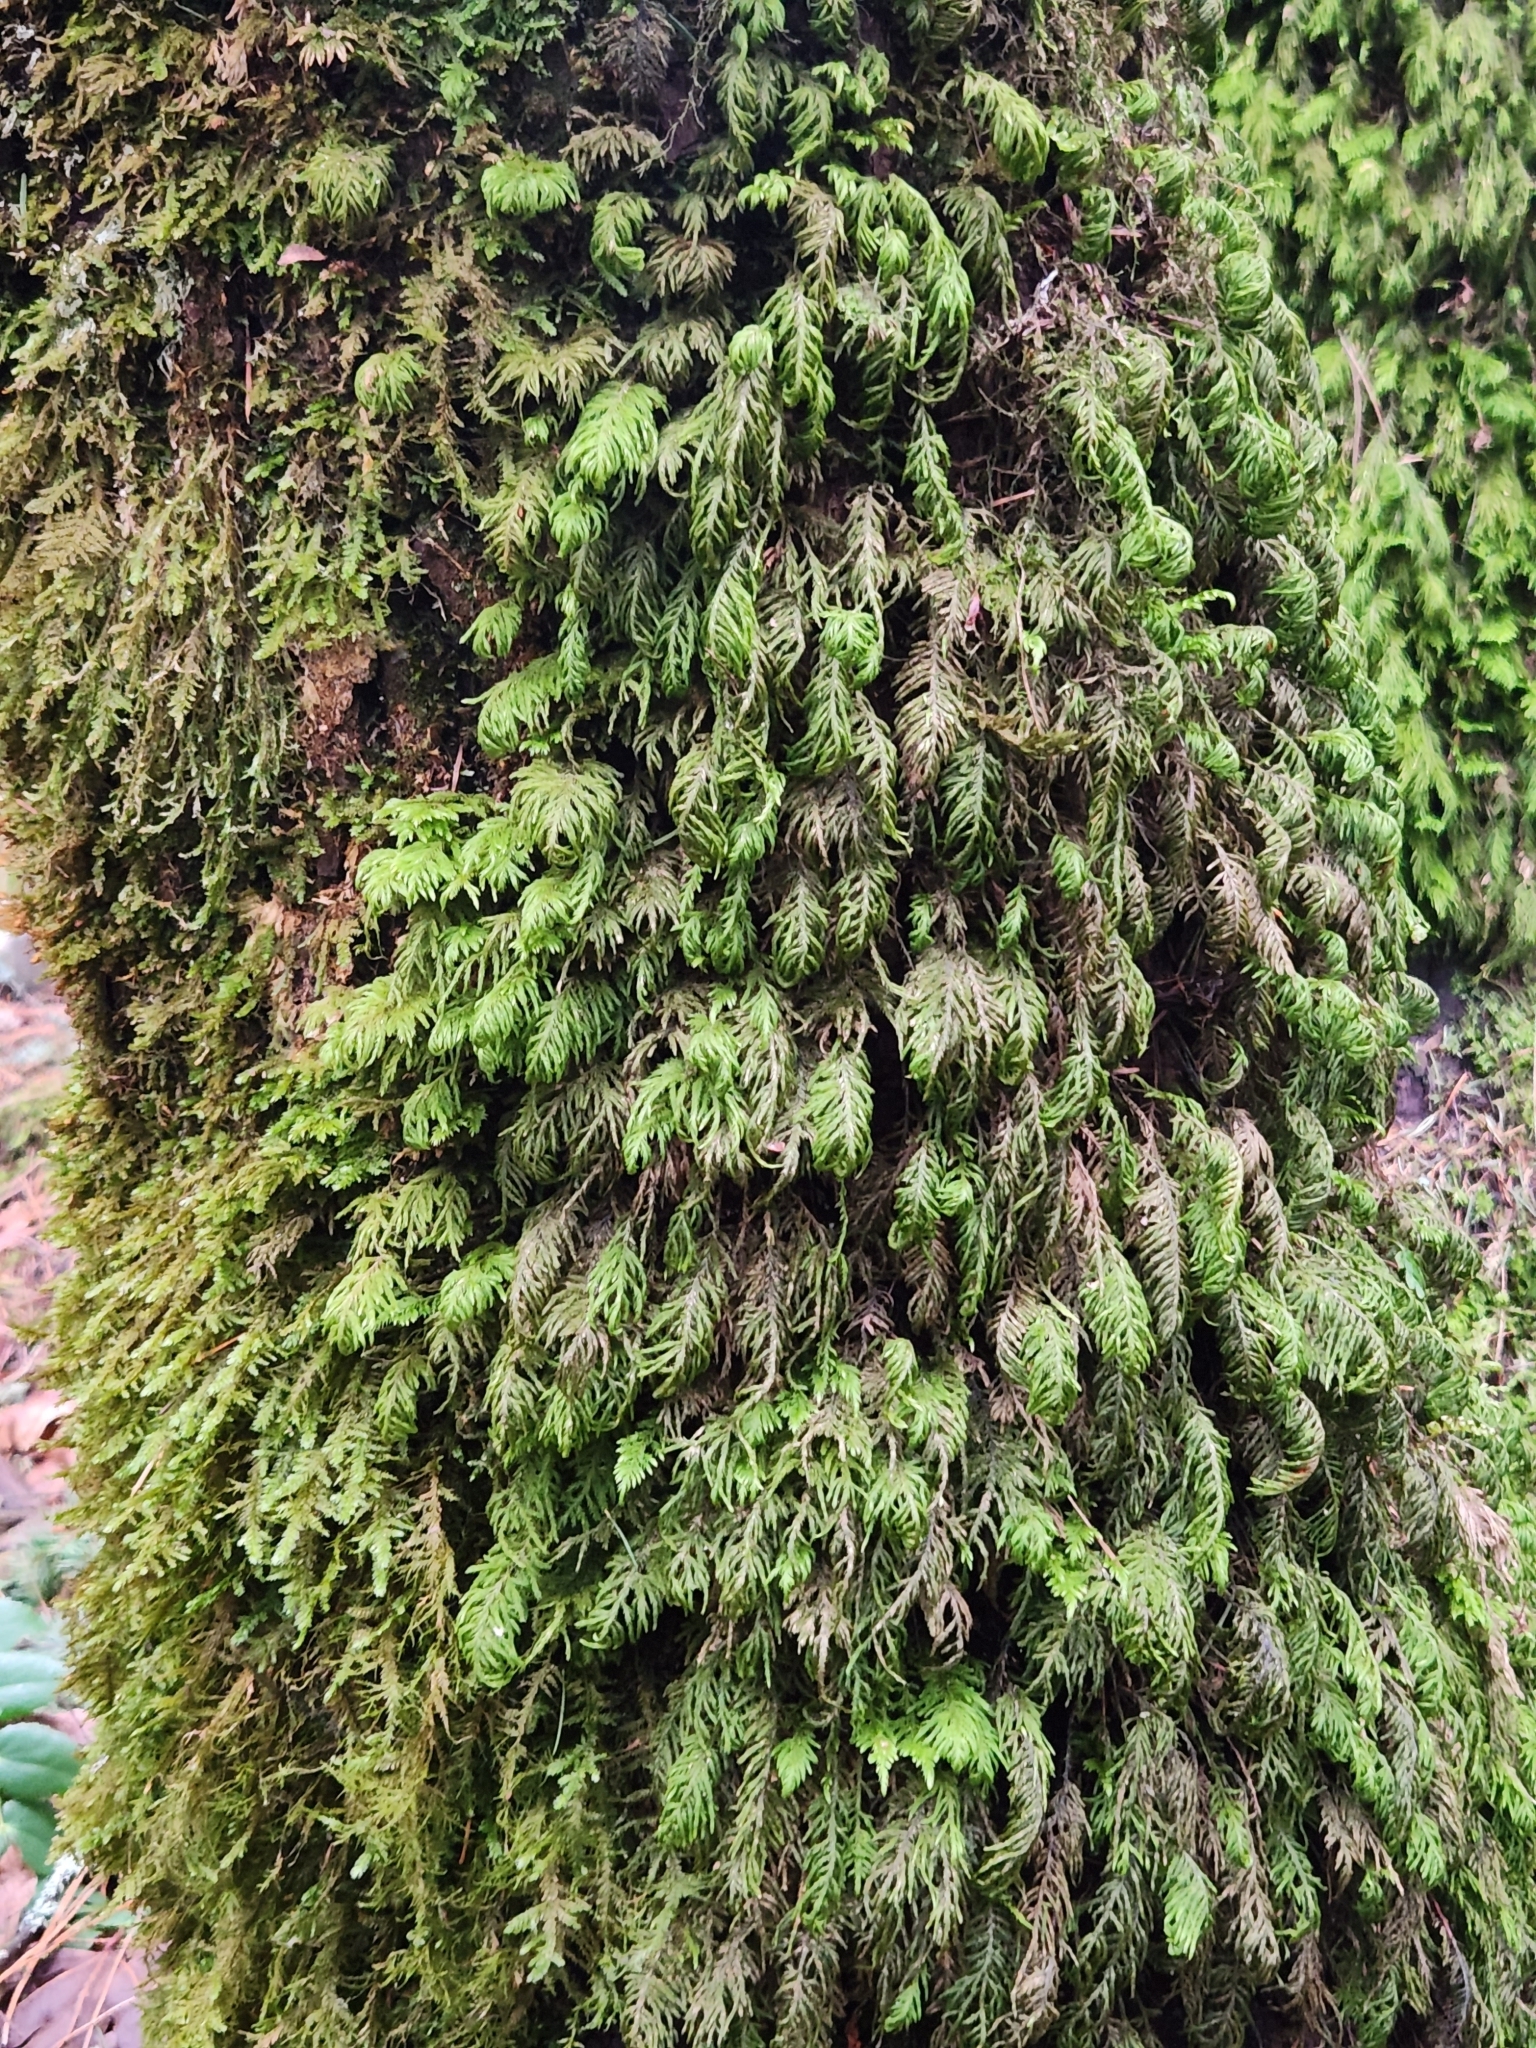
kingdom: Plantae
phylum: Bryophyta
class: Bryopsida
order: Hypnales
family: Cryphaeaceae
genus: Dendroalsia
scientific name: Dendroalsia abietina
